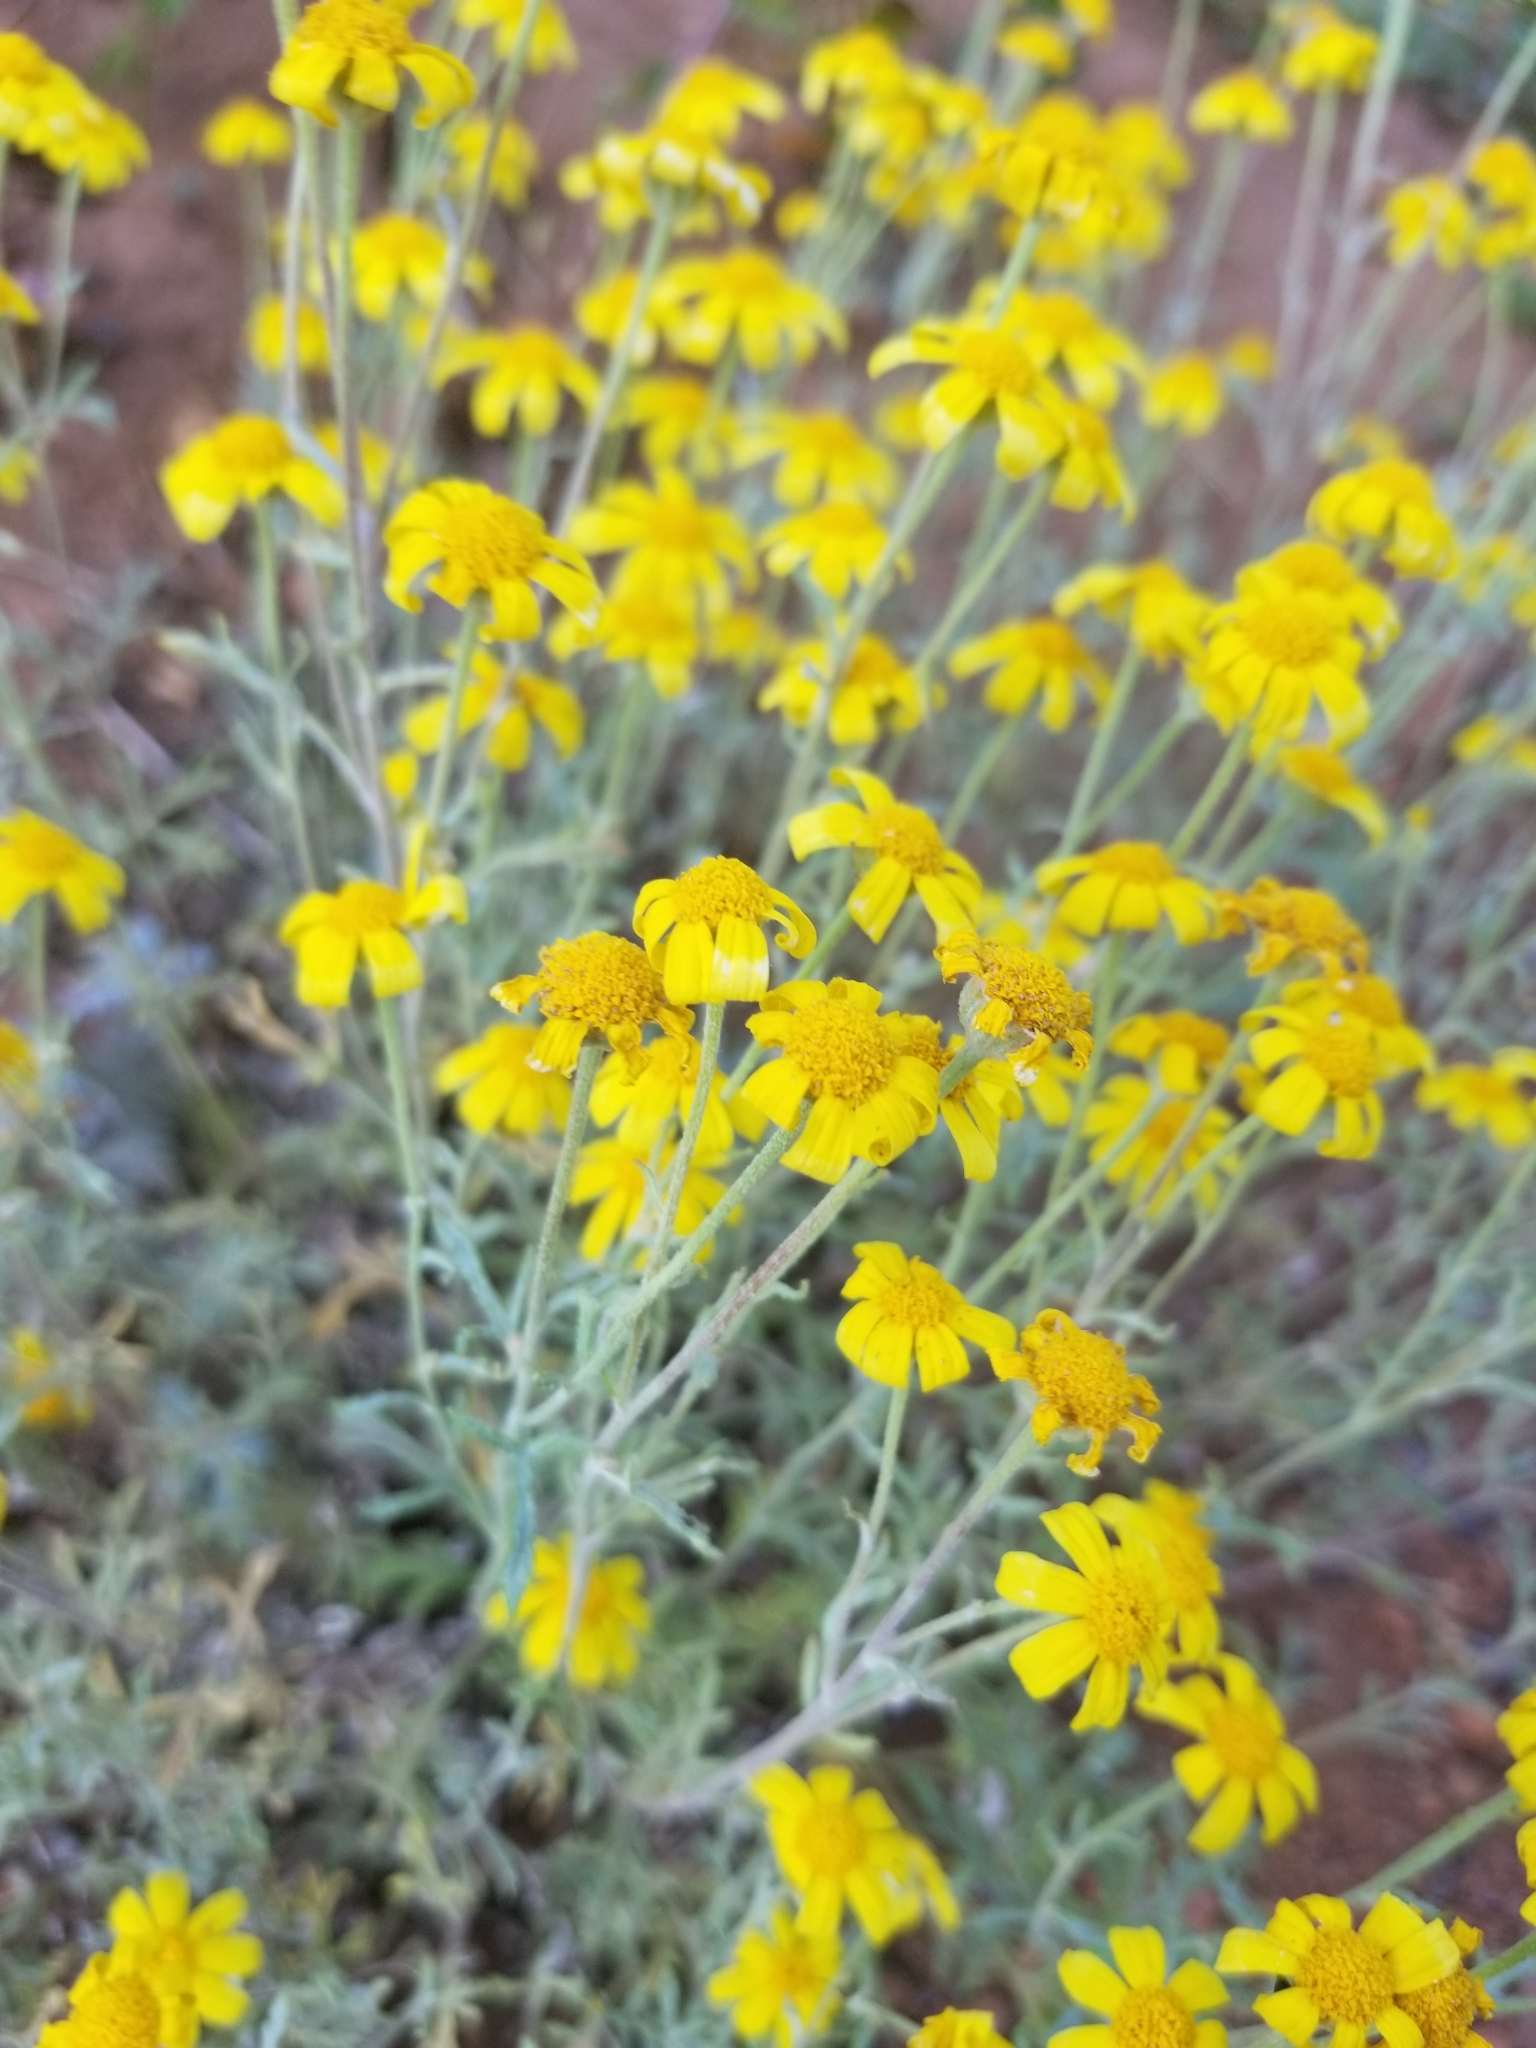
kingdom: Plantae
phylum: Tracheophyta
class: Magnoliopsida
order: Asterales
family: Asteraceae
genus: Eriophyllum
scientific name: Eriophyllum lanatum
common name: Common woolly-sunflower
